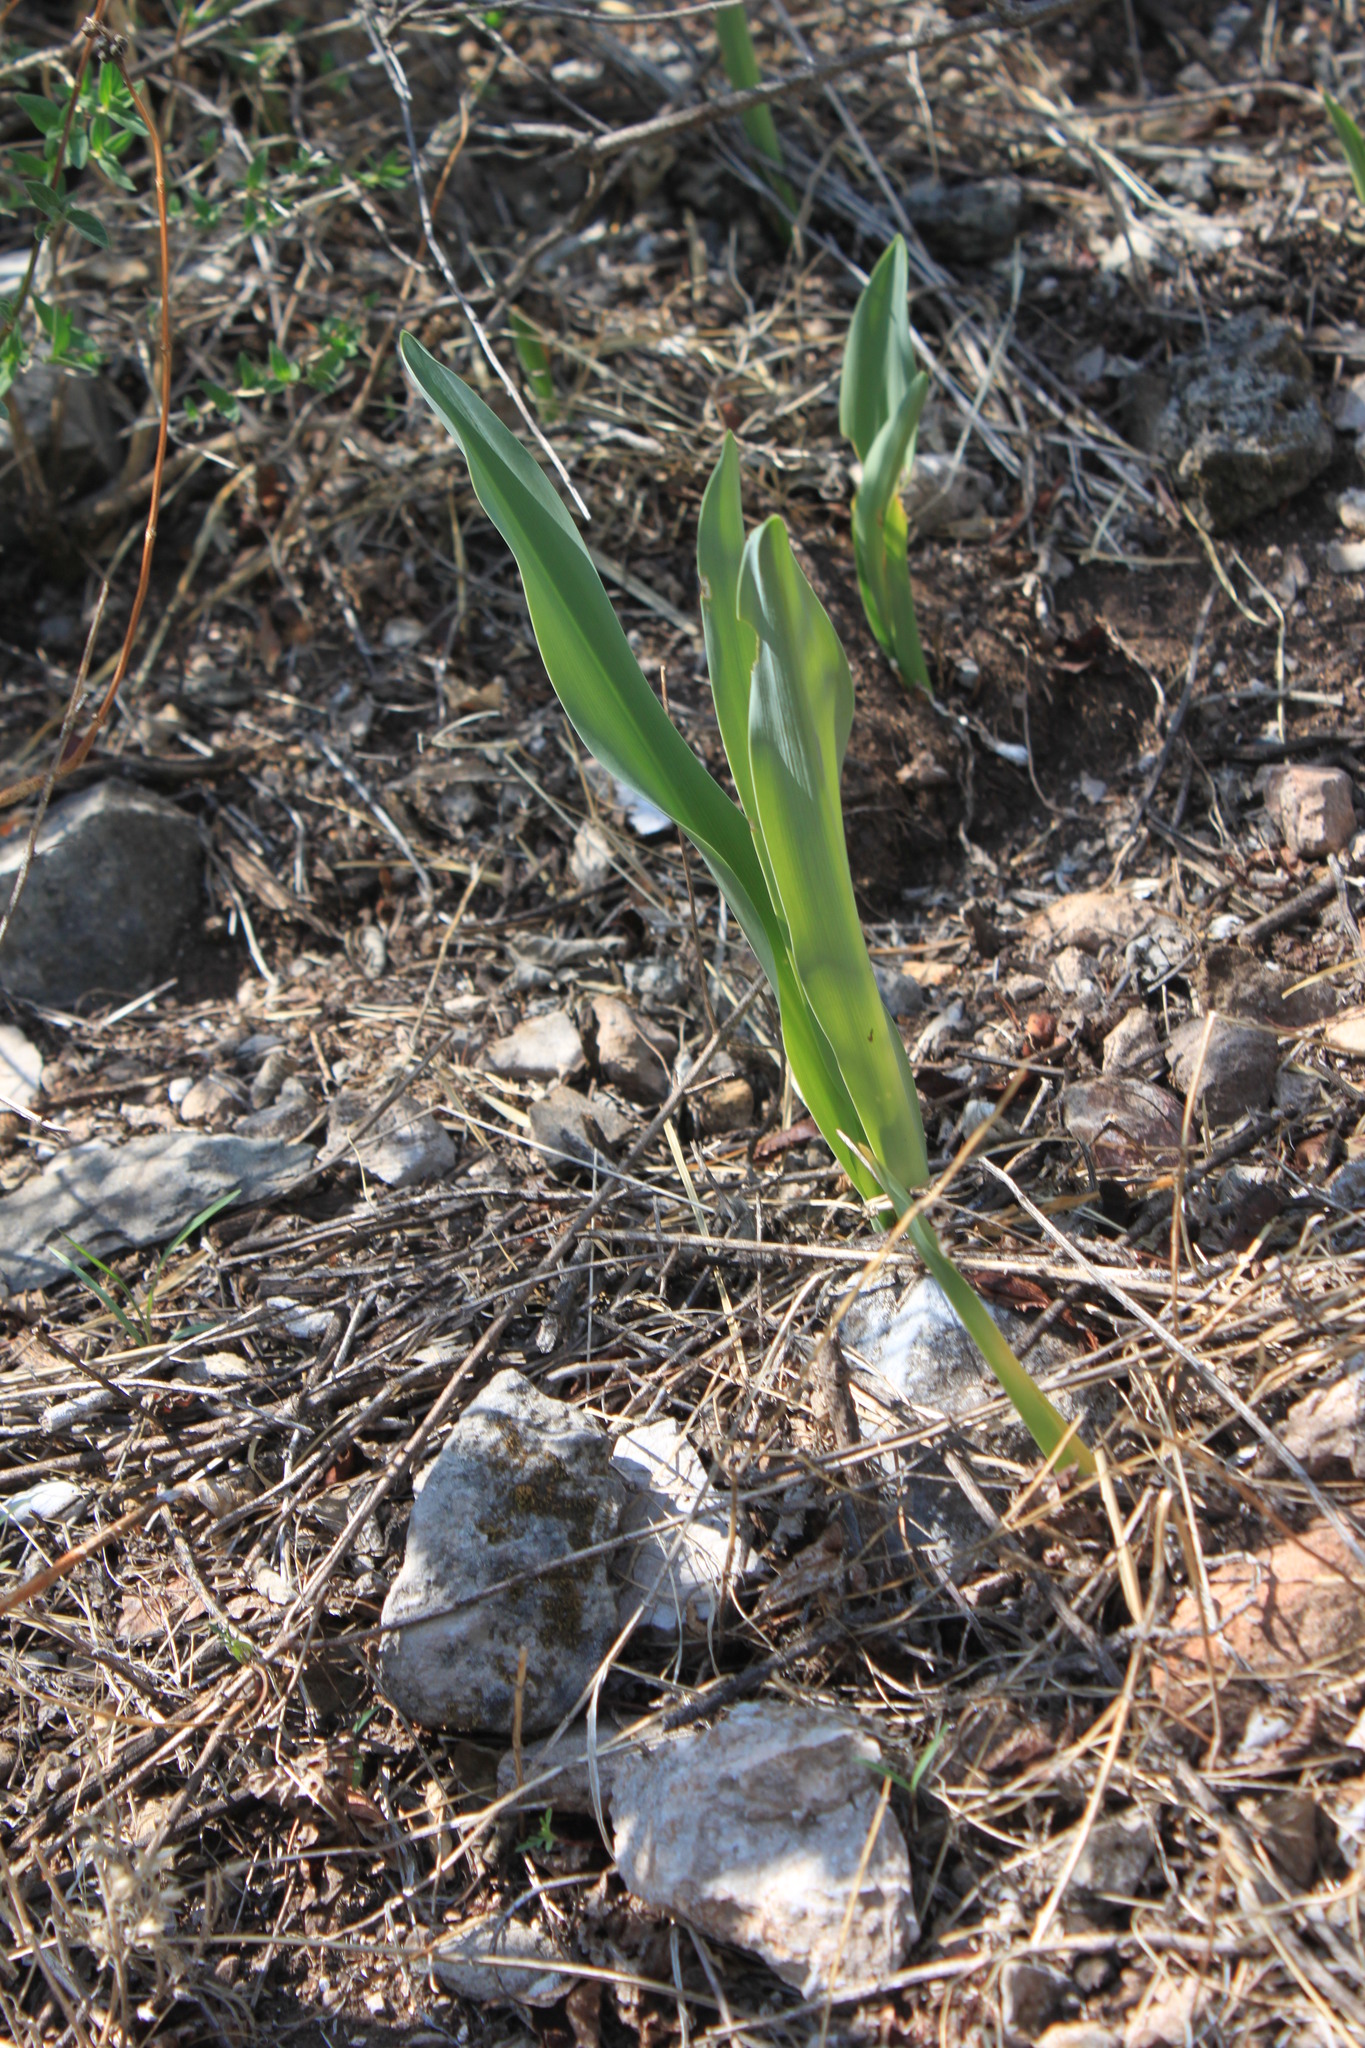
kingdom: Plantae
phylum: Tracheophyta
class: Liliopsida
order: Asparagales
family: Amaryllidaceae
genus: Hymenocallis
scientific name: Hymenocallis vasconcelosii
